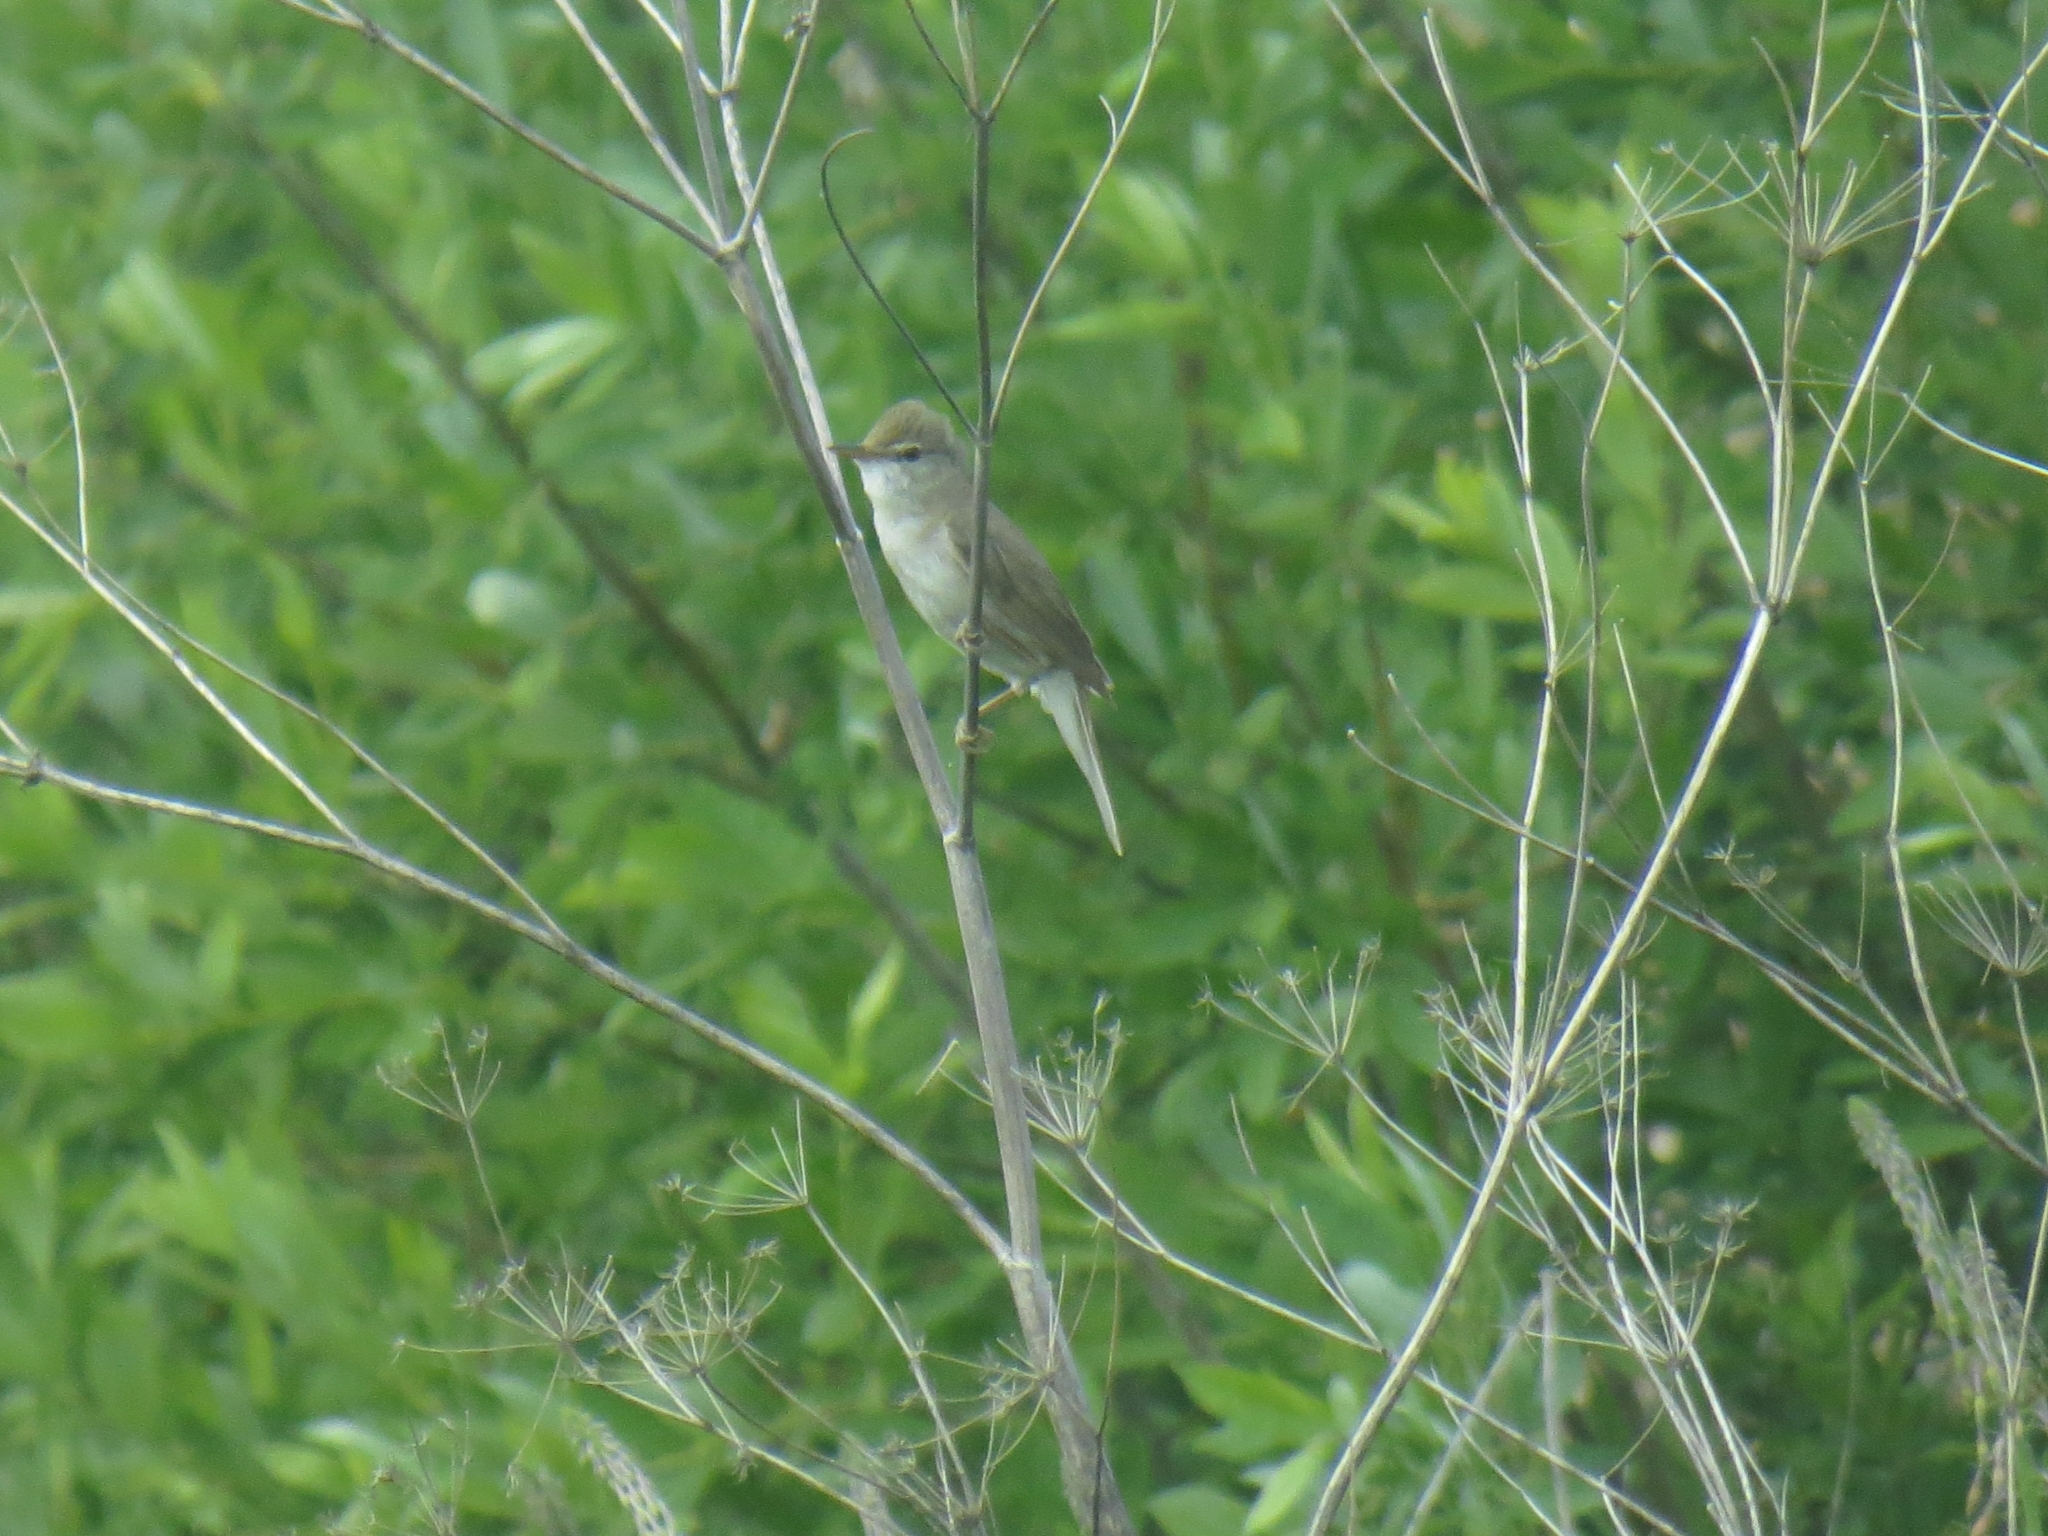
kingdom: Animalia
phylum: Chordata
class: Aves
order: Passeriformes
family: Acrocephalidae
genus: Acrocephalus
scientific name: Acrocephalus dumetorum
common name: Blyth's reed warbler
